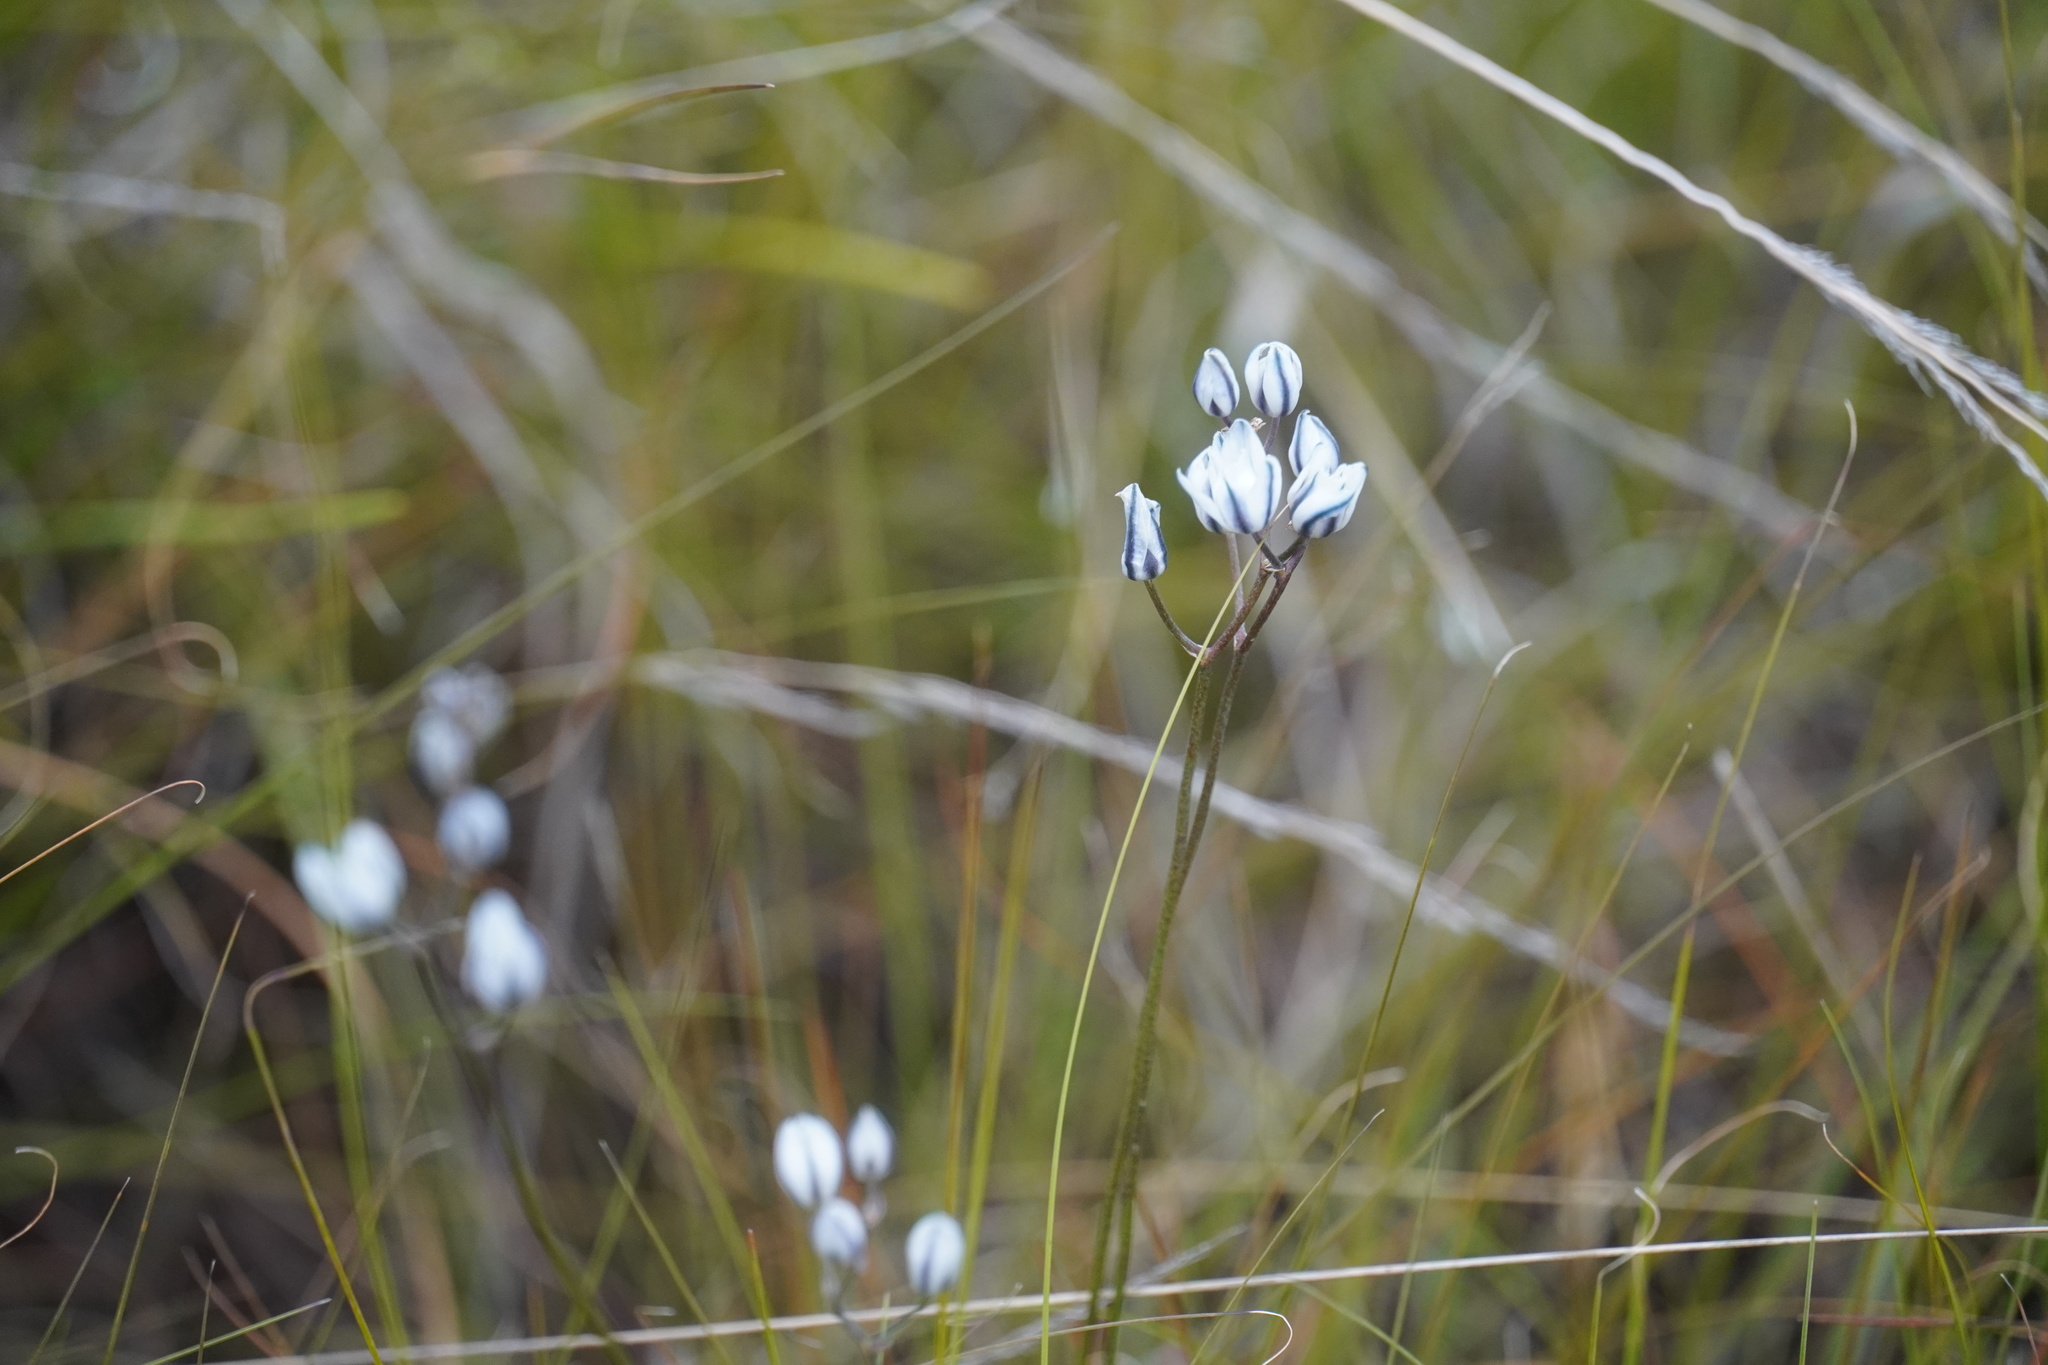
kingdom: Plantae
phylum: Tracheophyta
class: Liliopsida
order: Asparagales
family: Asparagaceae
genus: Eriospermum
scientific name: Eriospermum ornithogaloides
